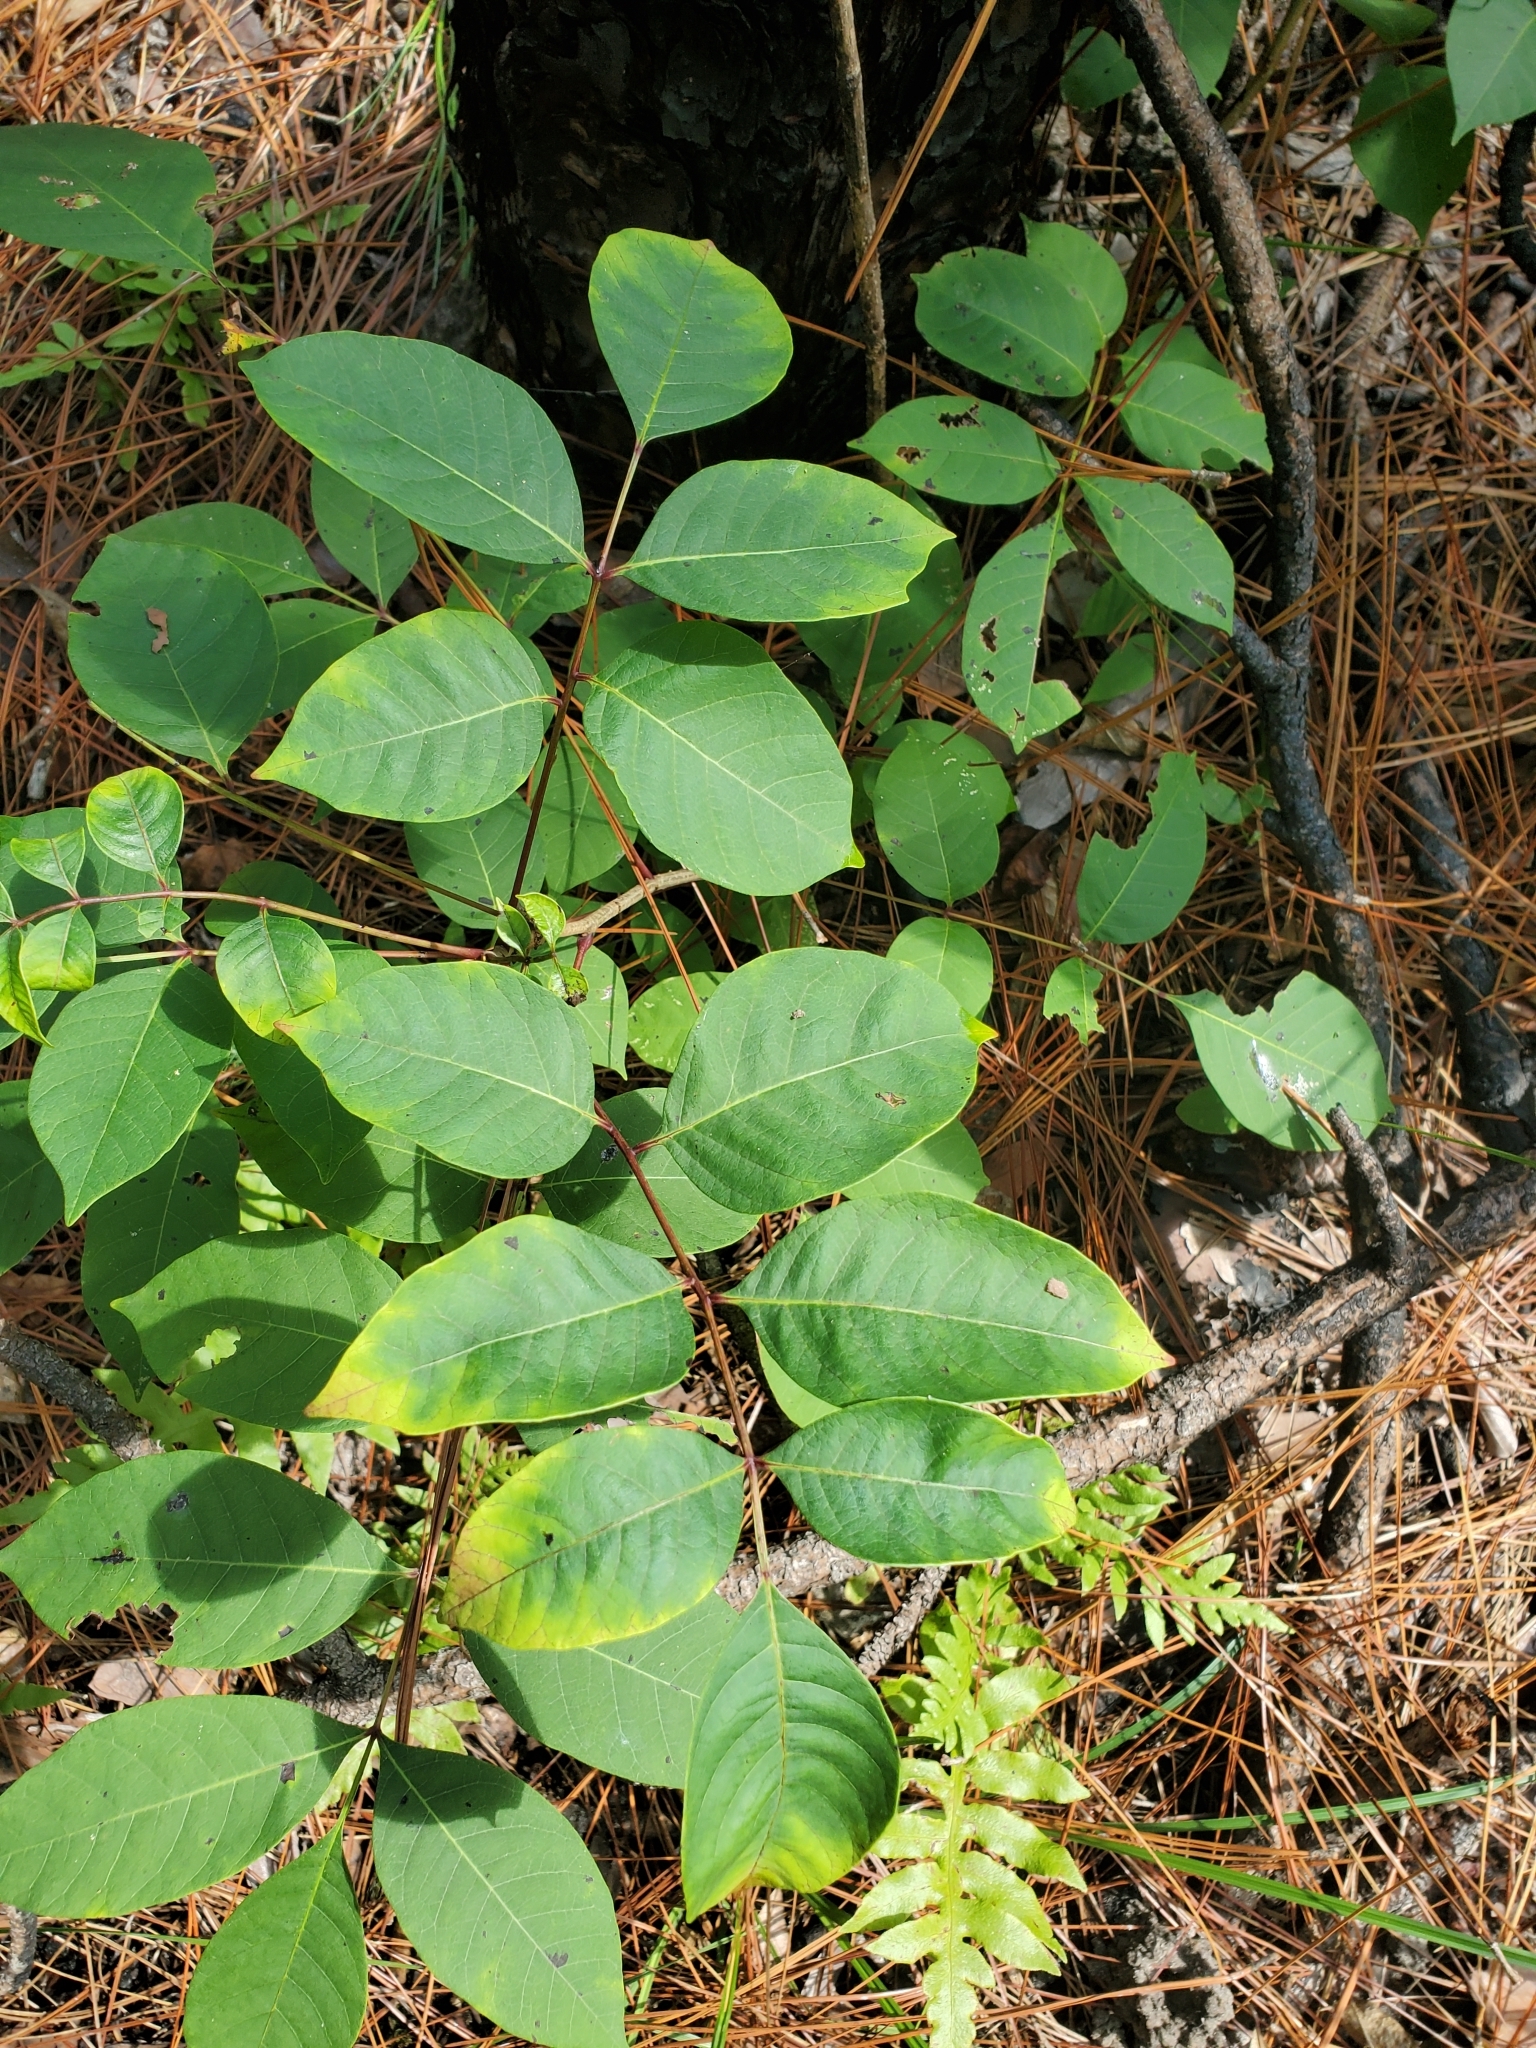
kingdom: Plantae
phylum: Tracheophyta
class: Magnoliopsida
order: Sapindales
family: Anacardiaceae
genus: Toxicodendron
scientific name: Toxicodendron vernix
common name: Poison sumac
